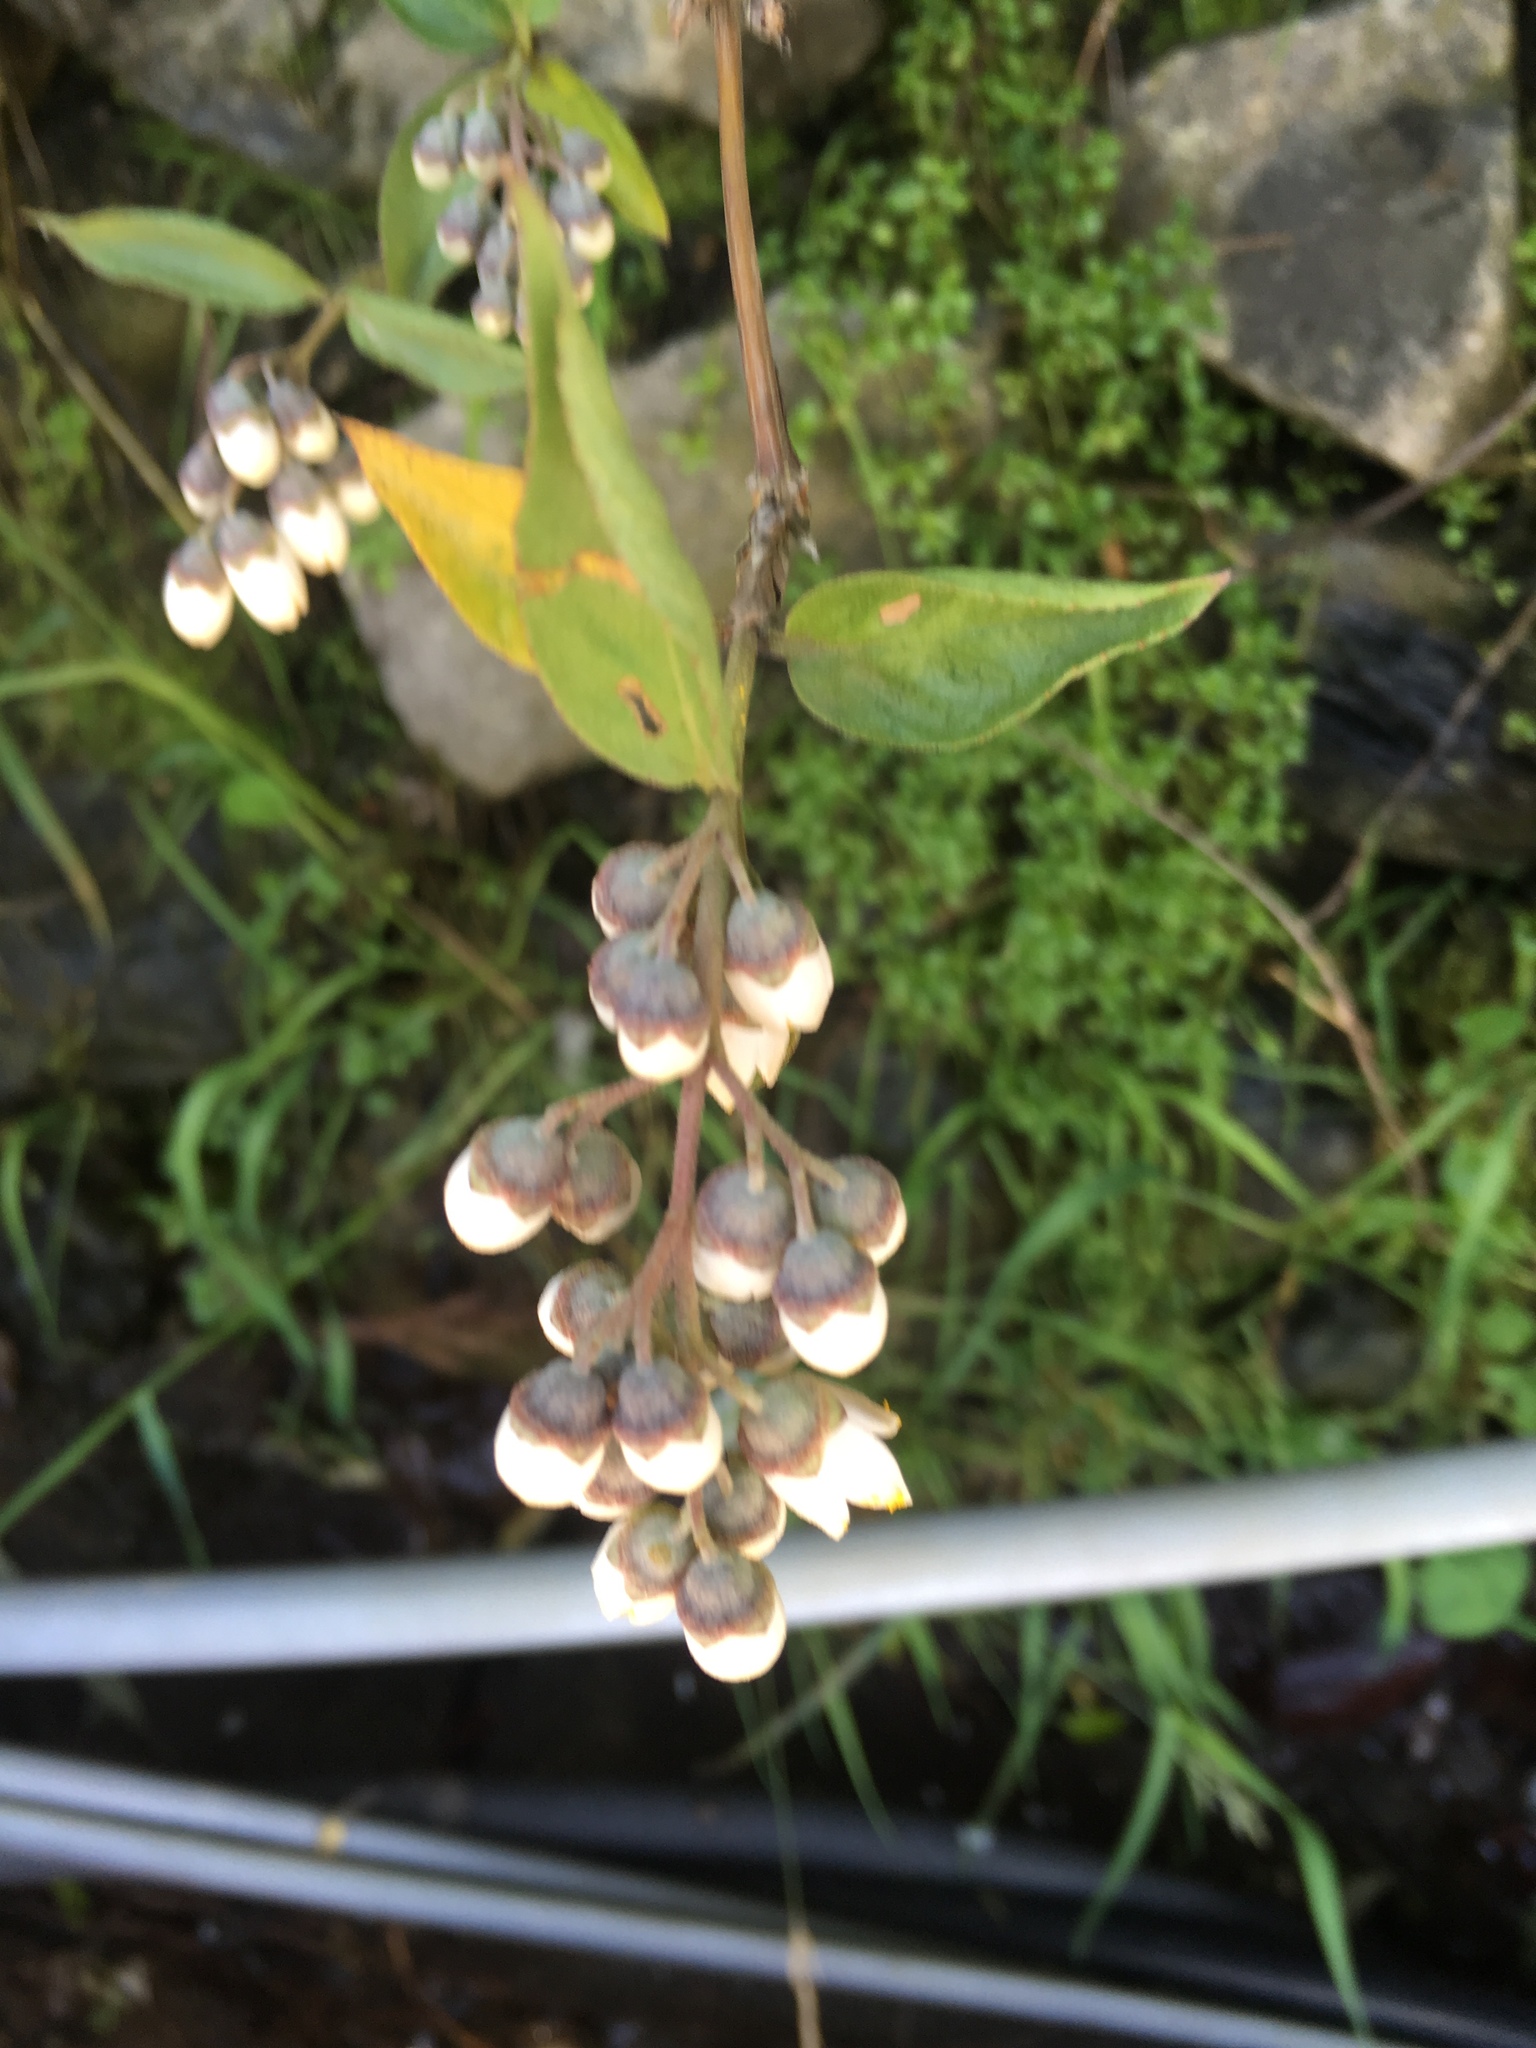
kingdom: Plantae
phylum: Tracheophyta
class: Magnoliopsida
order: Cornales
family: Hydrangeaceae
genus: Deutzia
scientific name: Deutzia pulchra
